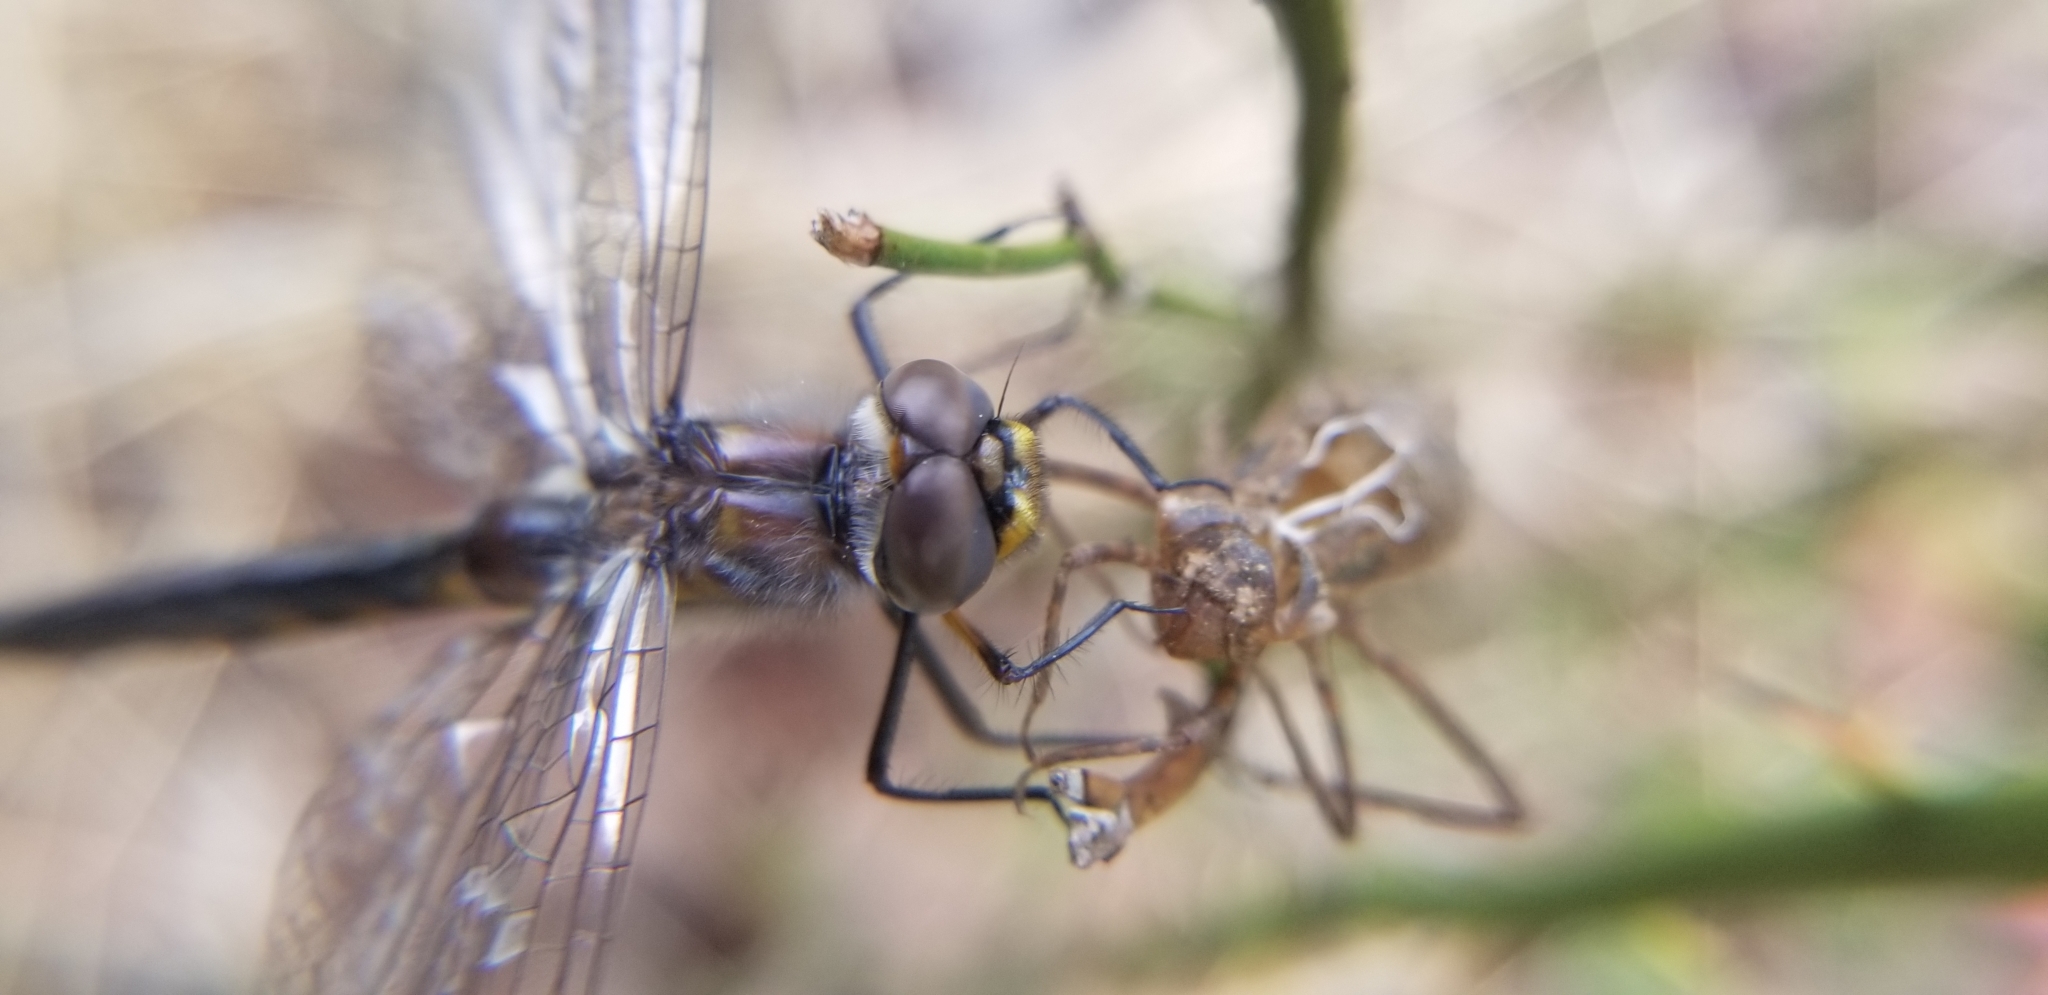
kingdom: Animalia
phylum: Arthropoda
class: Insecta
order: Odonata
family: Corduliidae
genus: Epitheca
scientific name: Epitheca cynosura
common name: Common baskettail
